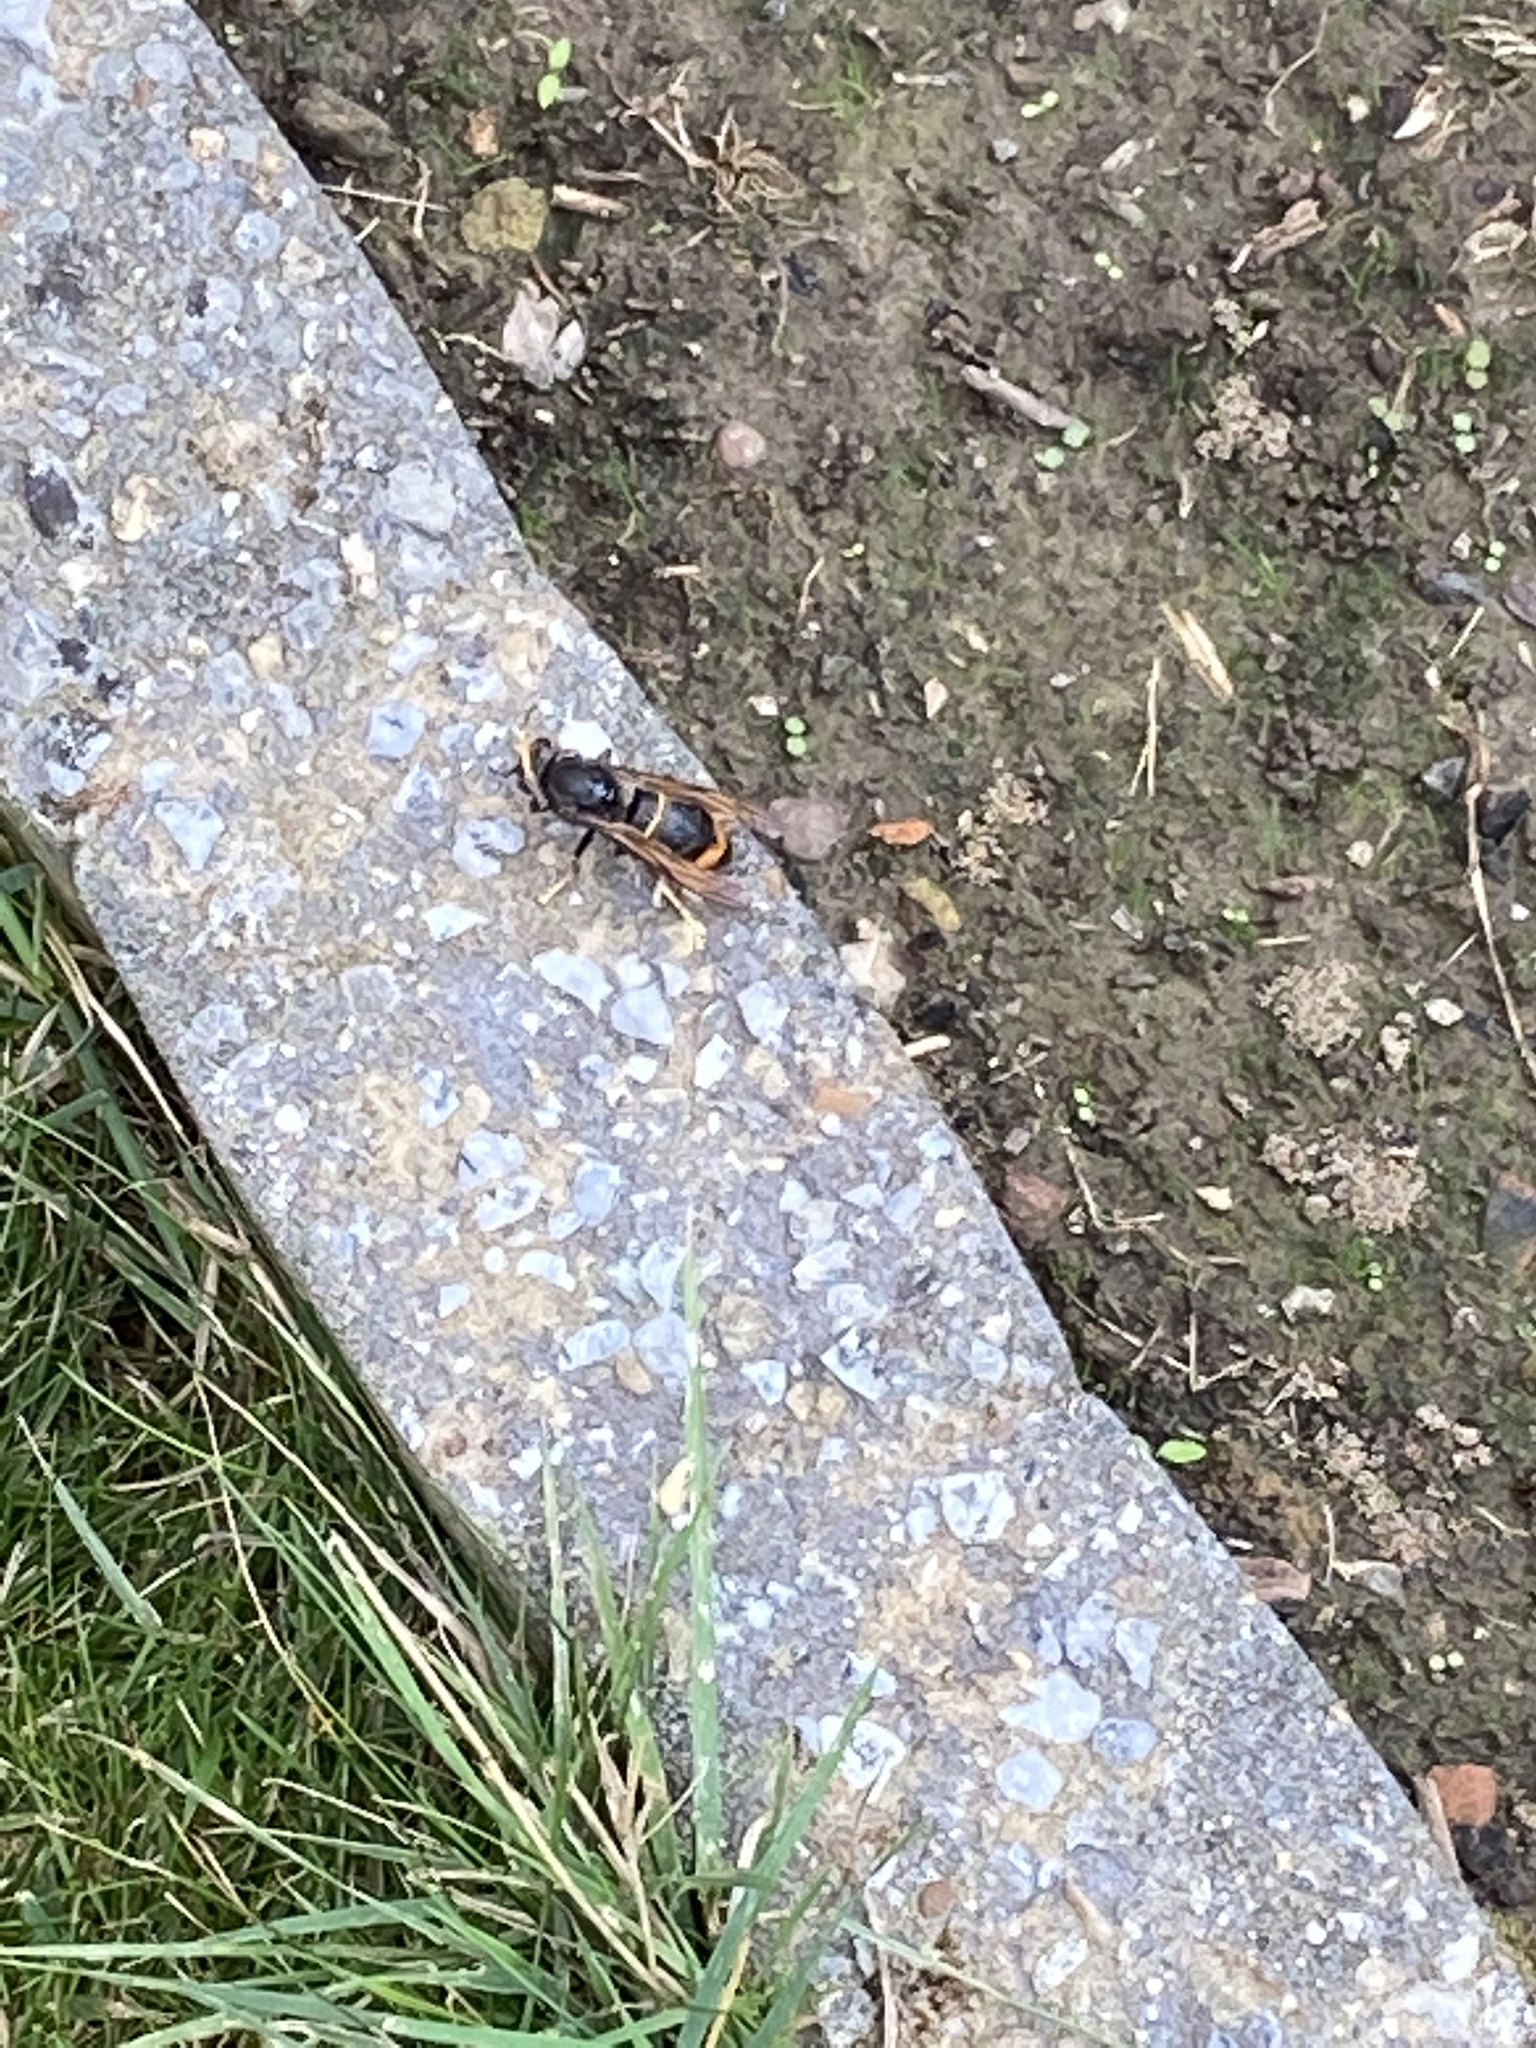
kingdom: Animalia
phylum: Arthropoda
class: Insecta
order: Hymenoptera
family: Vespidae
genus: Vespa
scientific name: Vespa velutina
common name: Asian hornet
